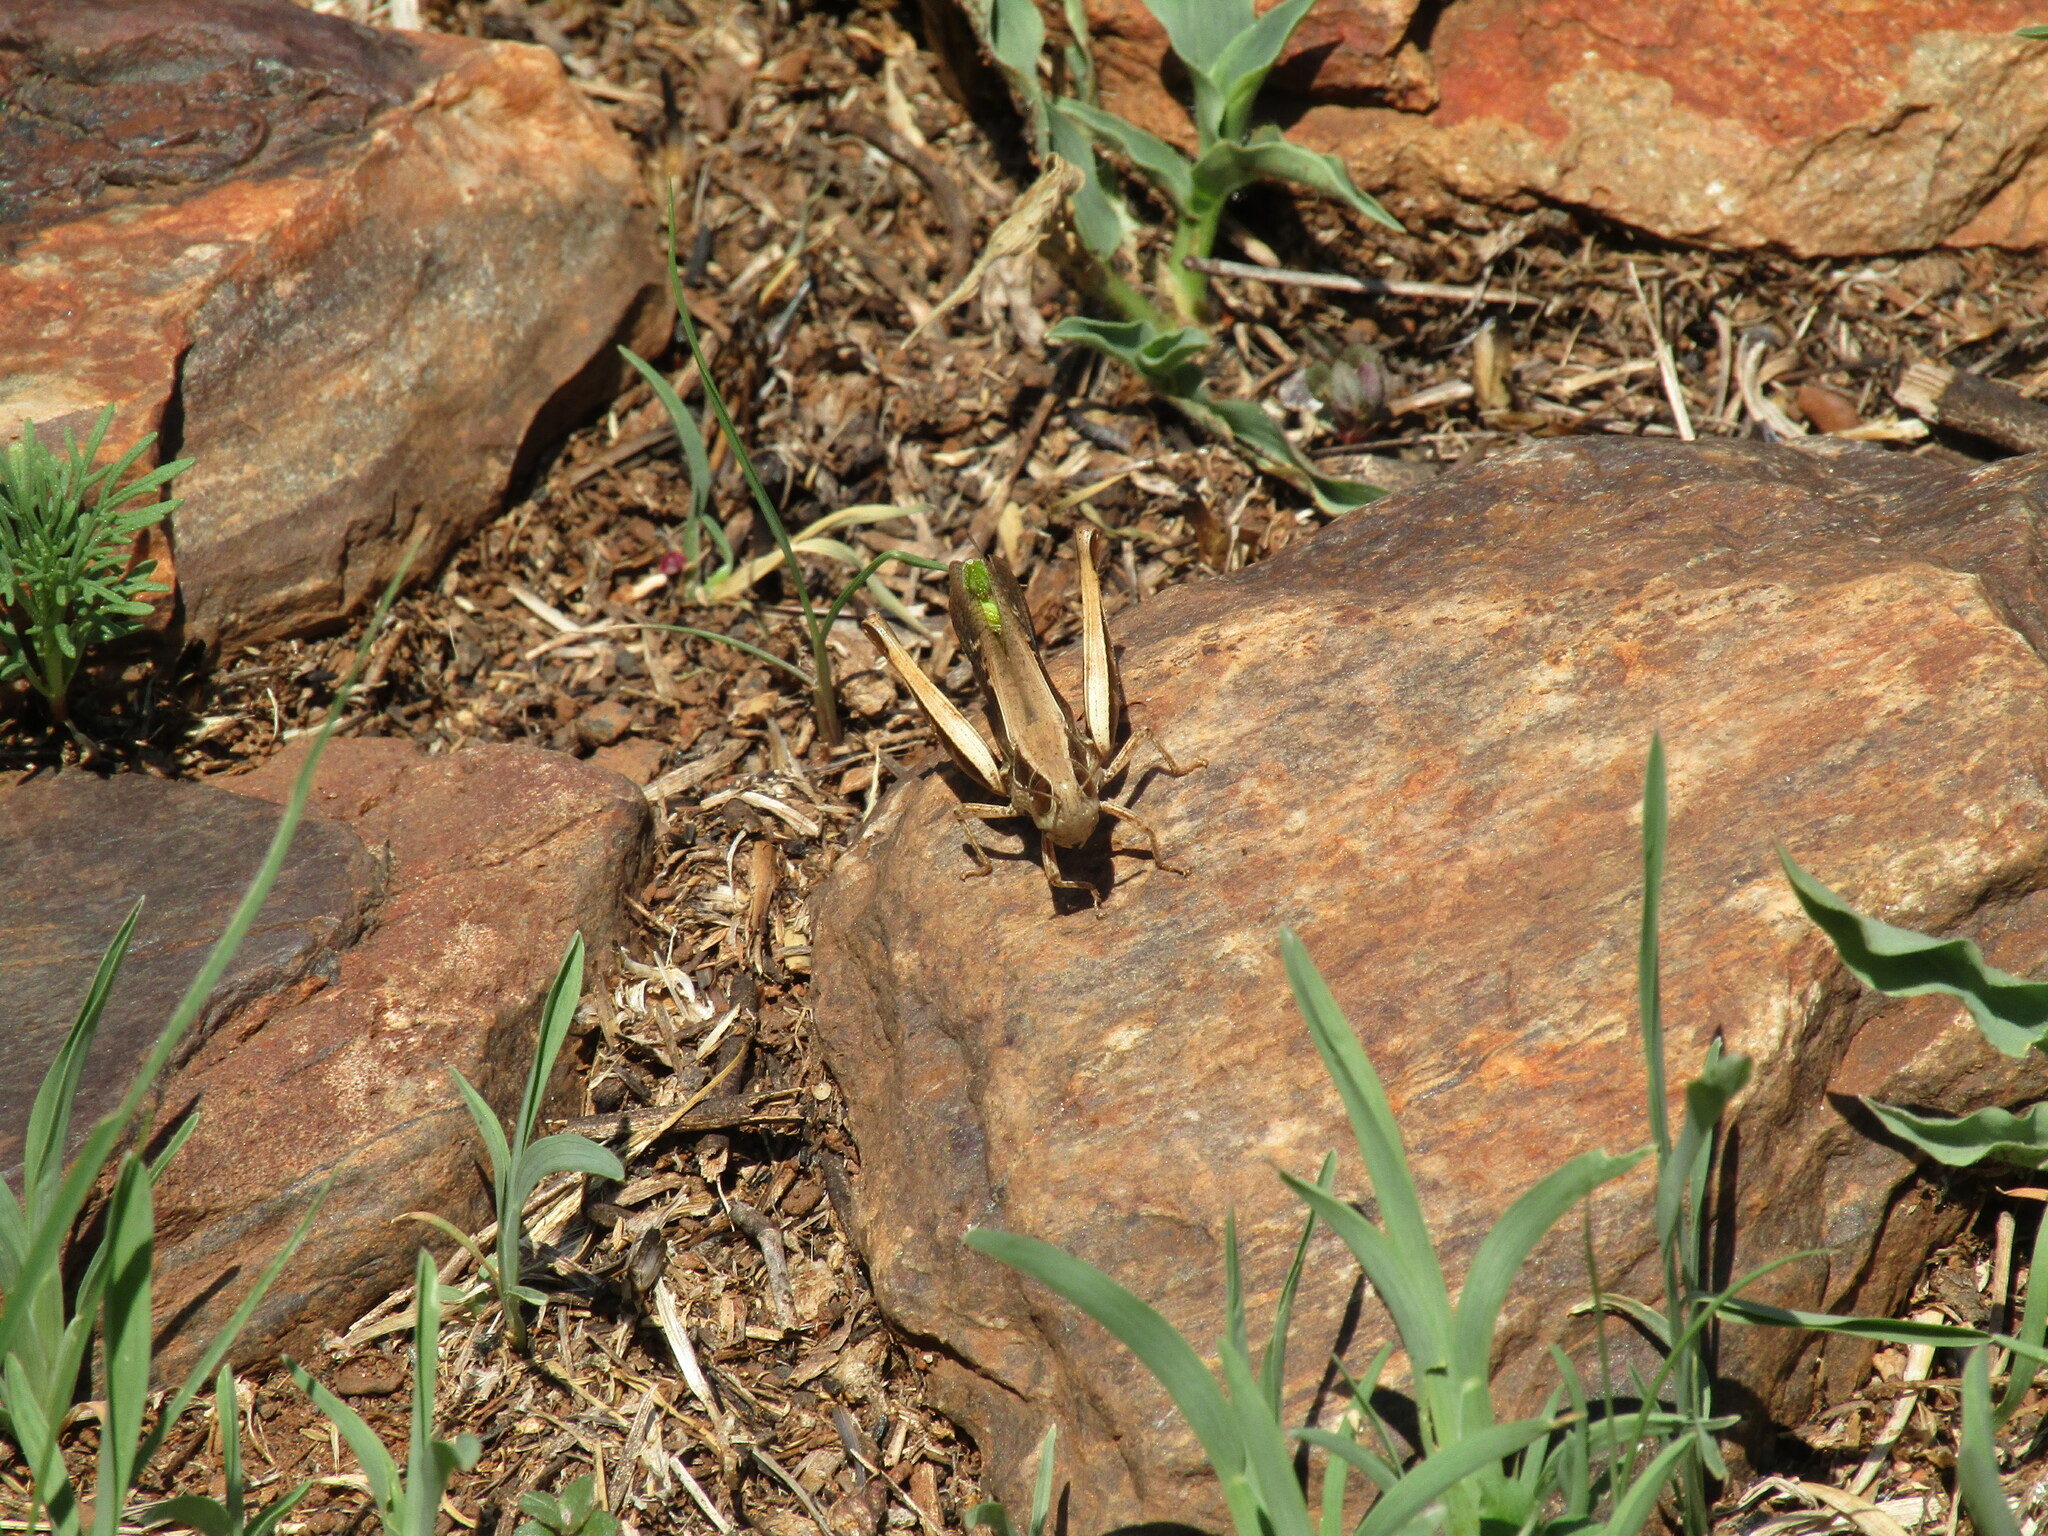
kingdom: Animalia
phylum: Arthropoda
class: Insecta
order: Orthoptera
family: Acrididae
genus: Pnorisa
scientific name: Pnorisa squalus
